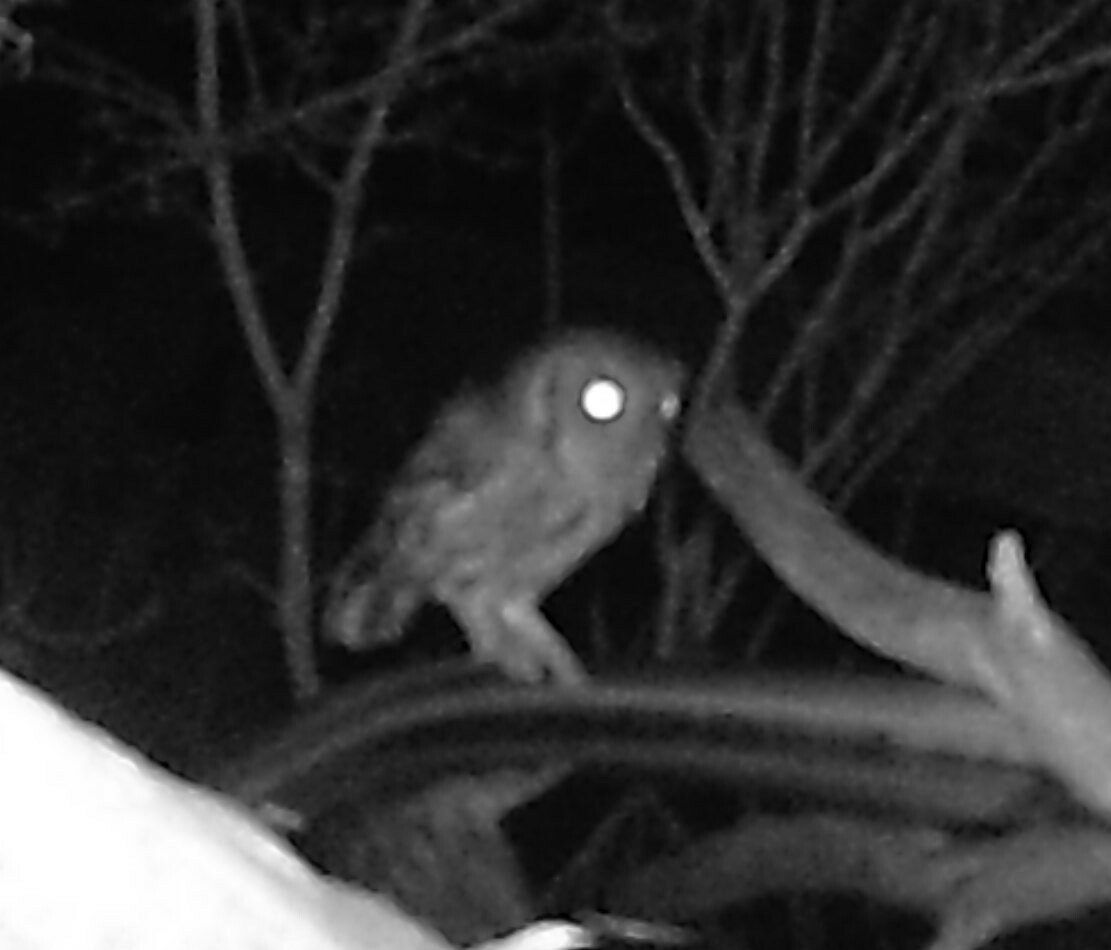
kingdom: Animalia
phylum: Chordata
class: Aves
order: Strigiformes
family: Strigidae
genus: Megascops
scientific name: Megascops asio
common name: Eastern screech-owl
